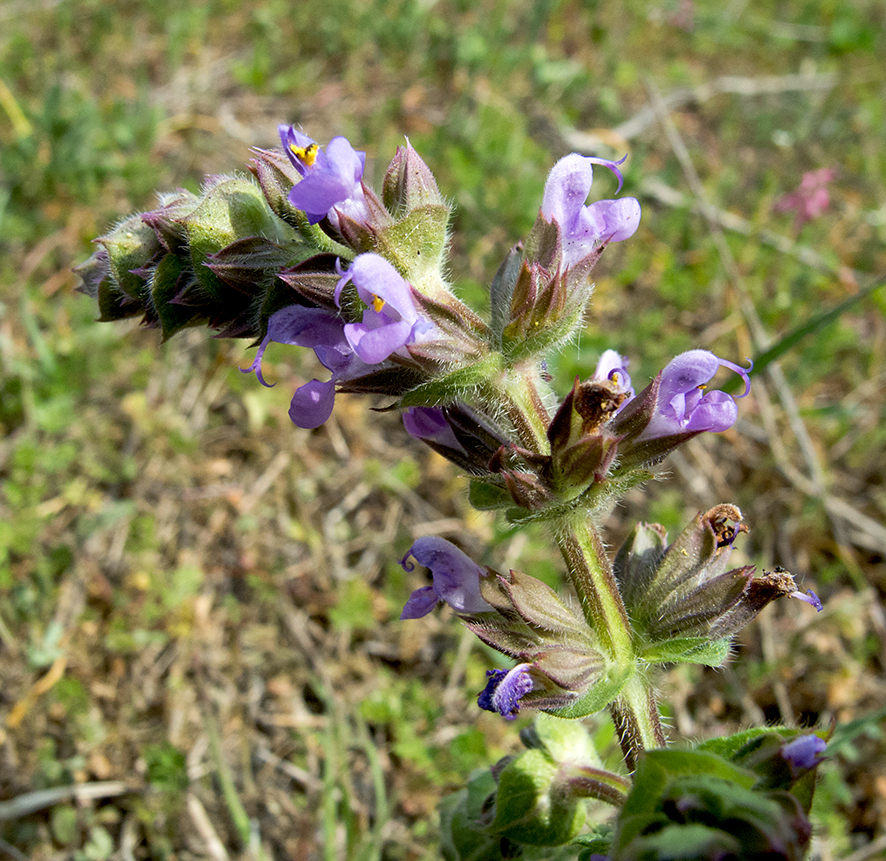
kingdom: Plantae
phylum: Tracheophyta
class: Magnoliopsida
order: Lamiales
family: Lamiaceae
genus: Salvia
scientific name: Salvia verbenaca
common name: Wild clary
